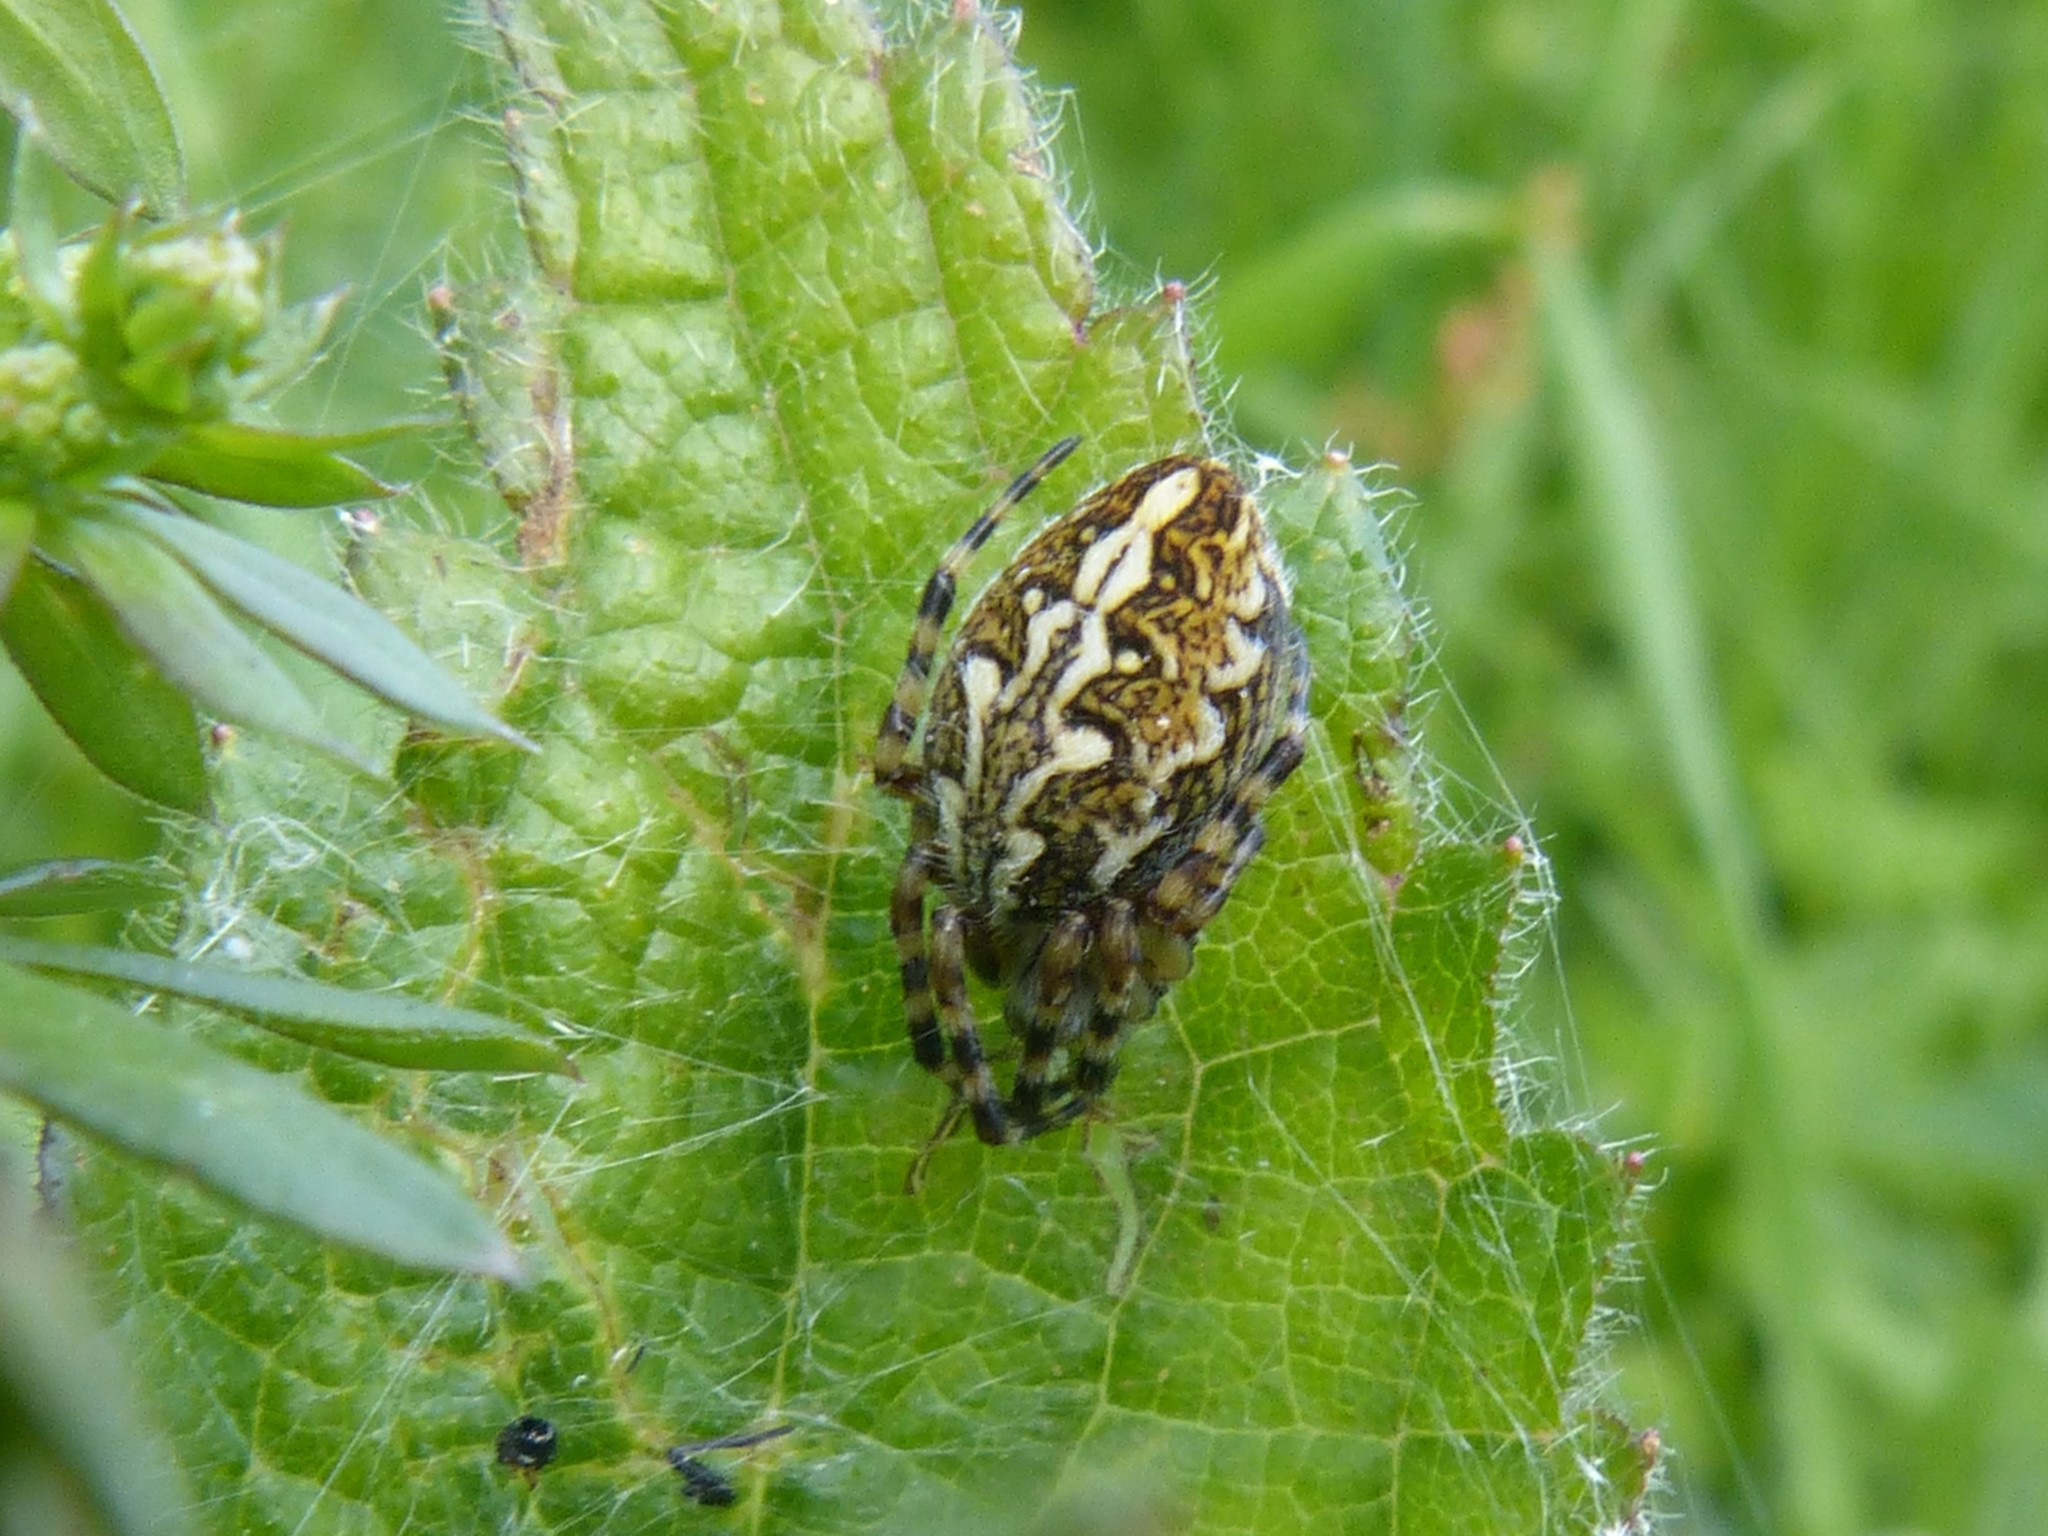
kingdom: Animalia
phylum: Arthropoda
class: Arachnida
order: Araneae
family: Araneidae
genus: Aculepeira
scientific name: Aculepeira ceropegia
